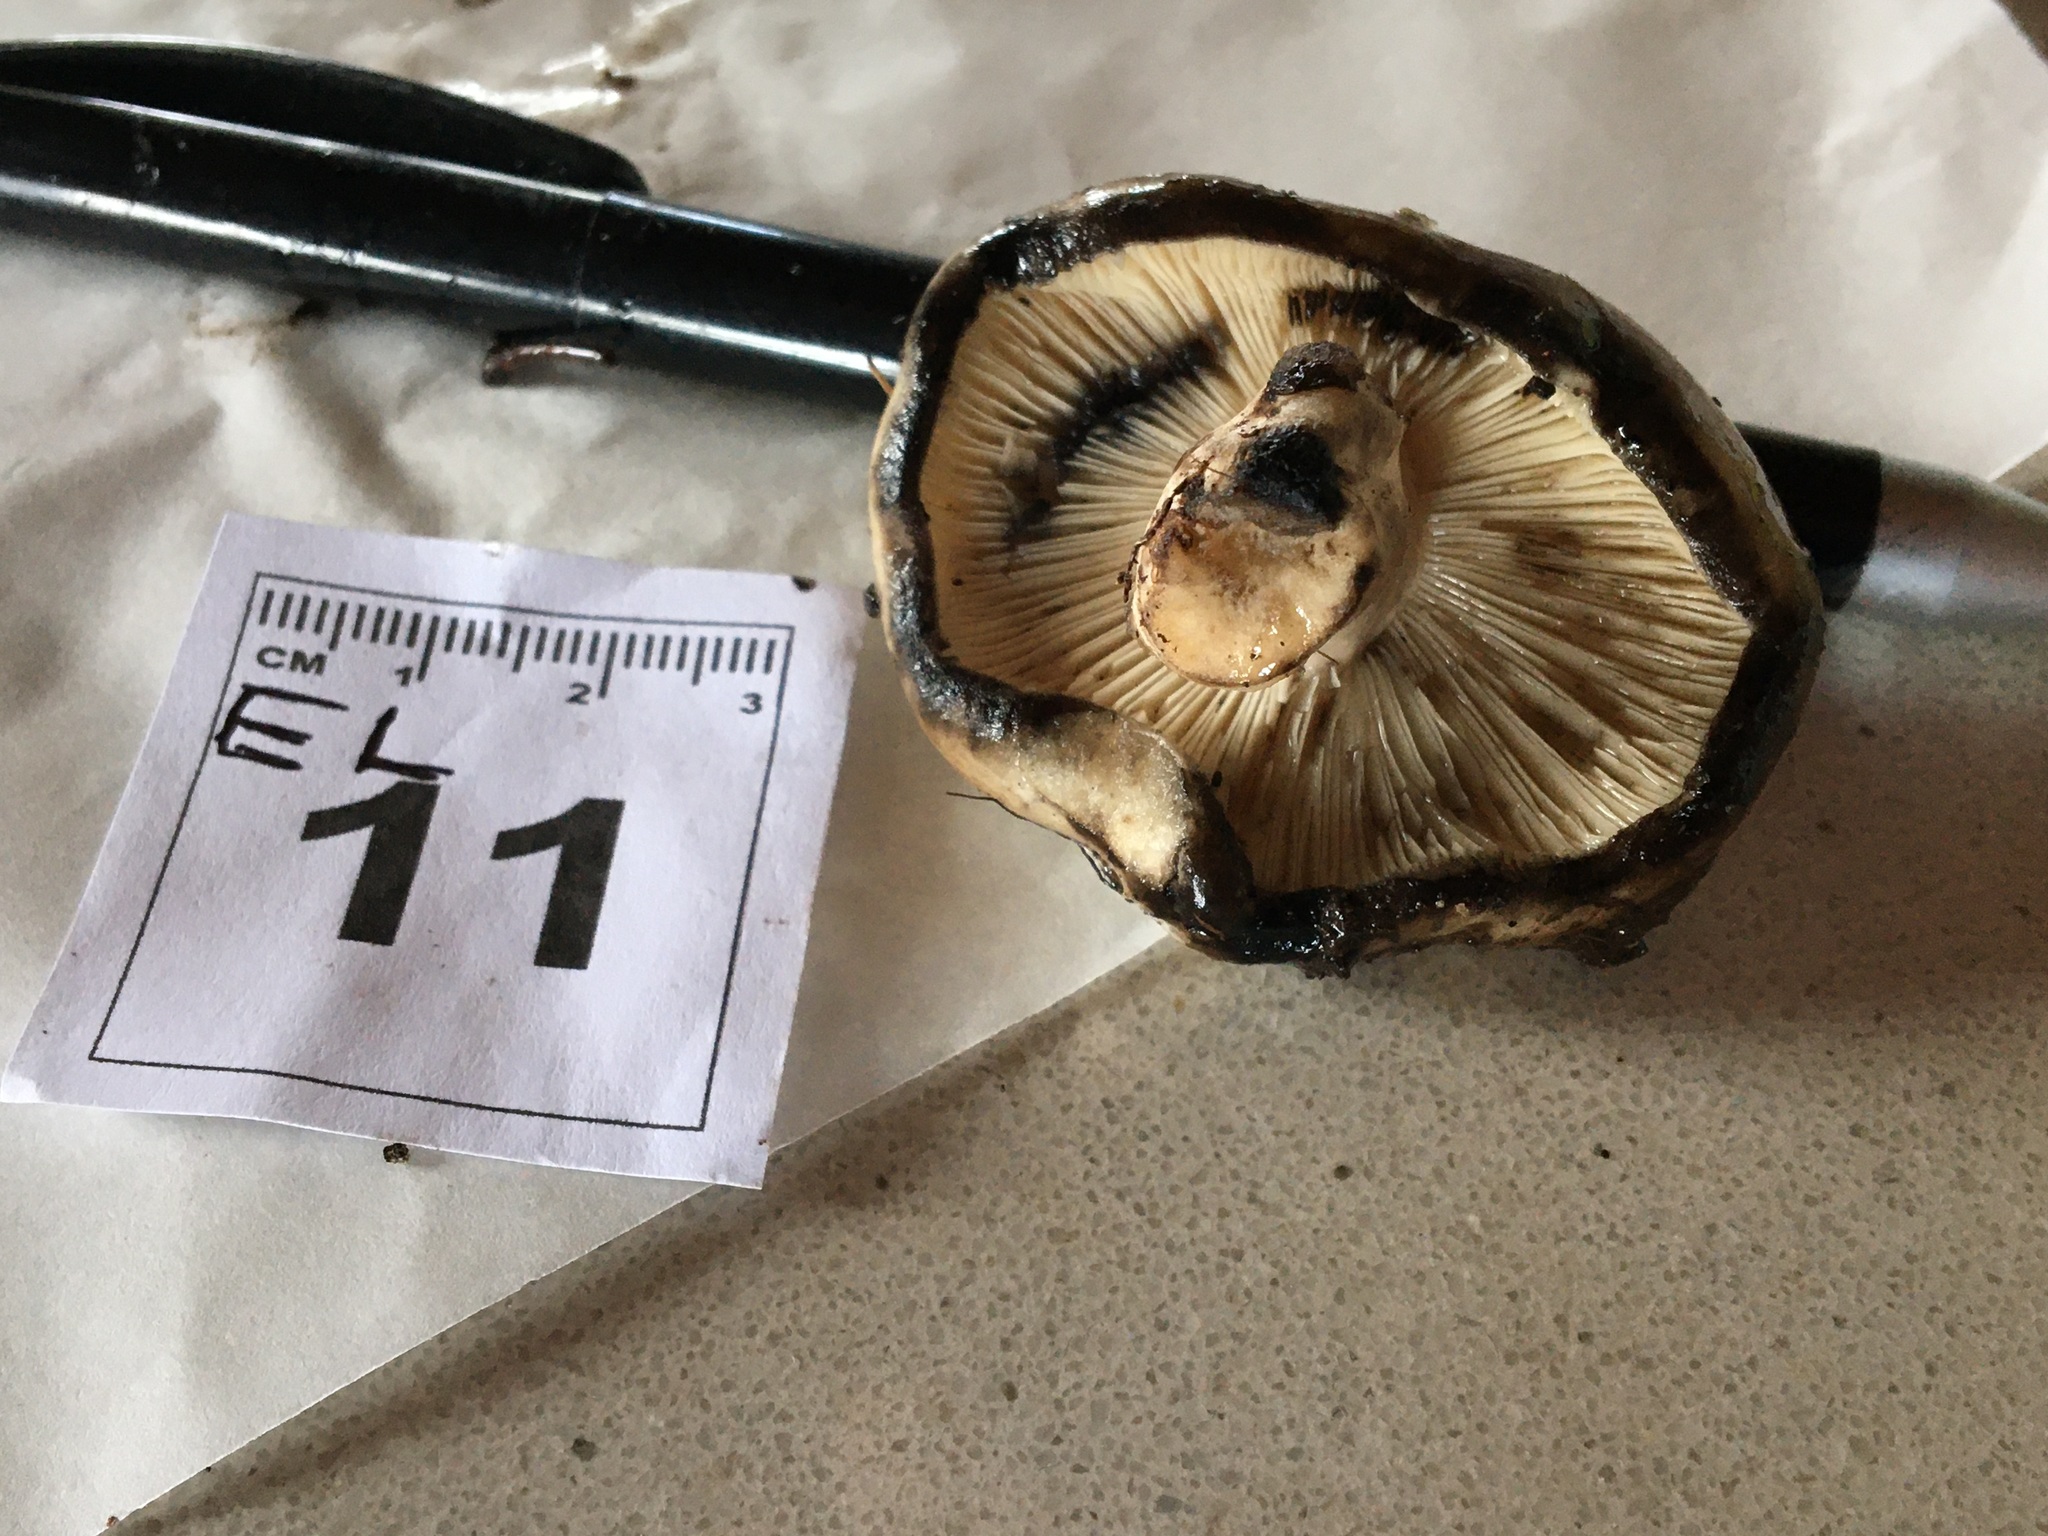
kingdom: Fungi
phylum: Basidiomycota
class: Agaricomycetes
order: Russulales
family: Russulaceae
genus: Russula
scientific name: Russula albonigra
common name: Menthol brittlegill
